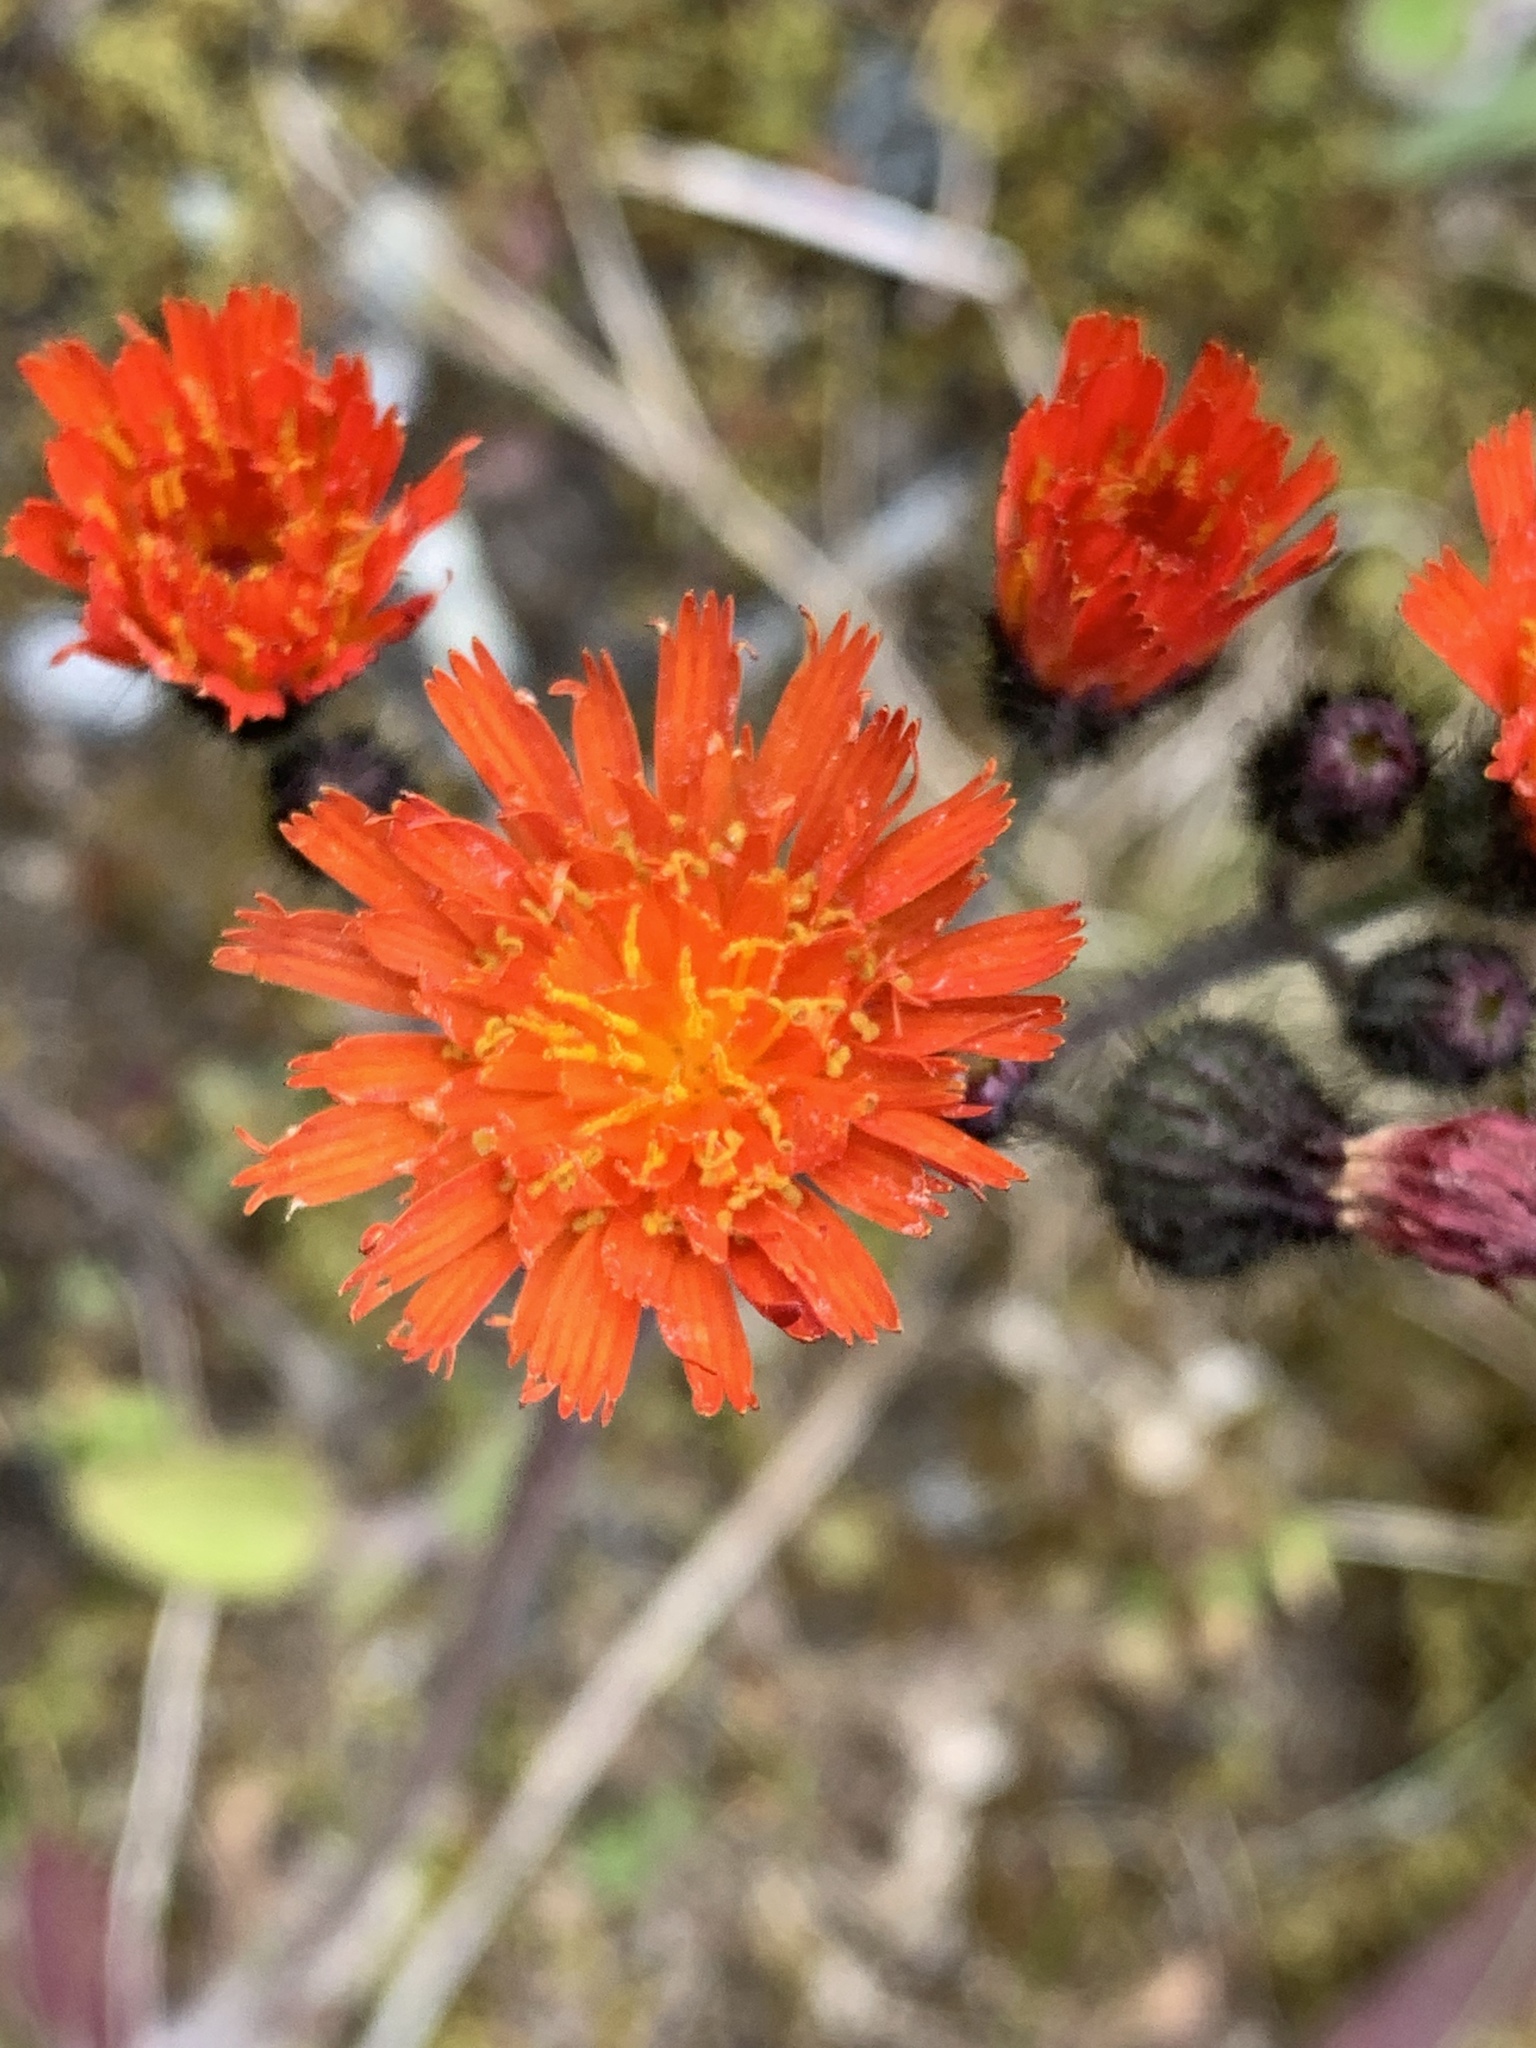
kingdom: Plantae
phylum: Tracheophyta
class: Magnoliopsida
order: Asterales
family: Asteraceae
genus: Pilosella
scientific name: Pilosella aurantiaca
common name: Fox-and-cubs
